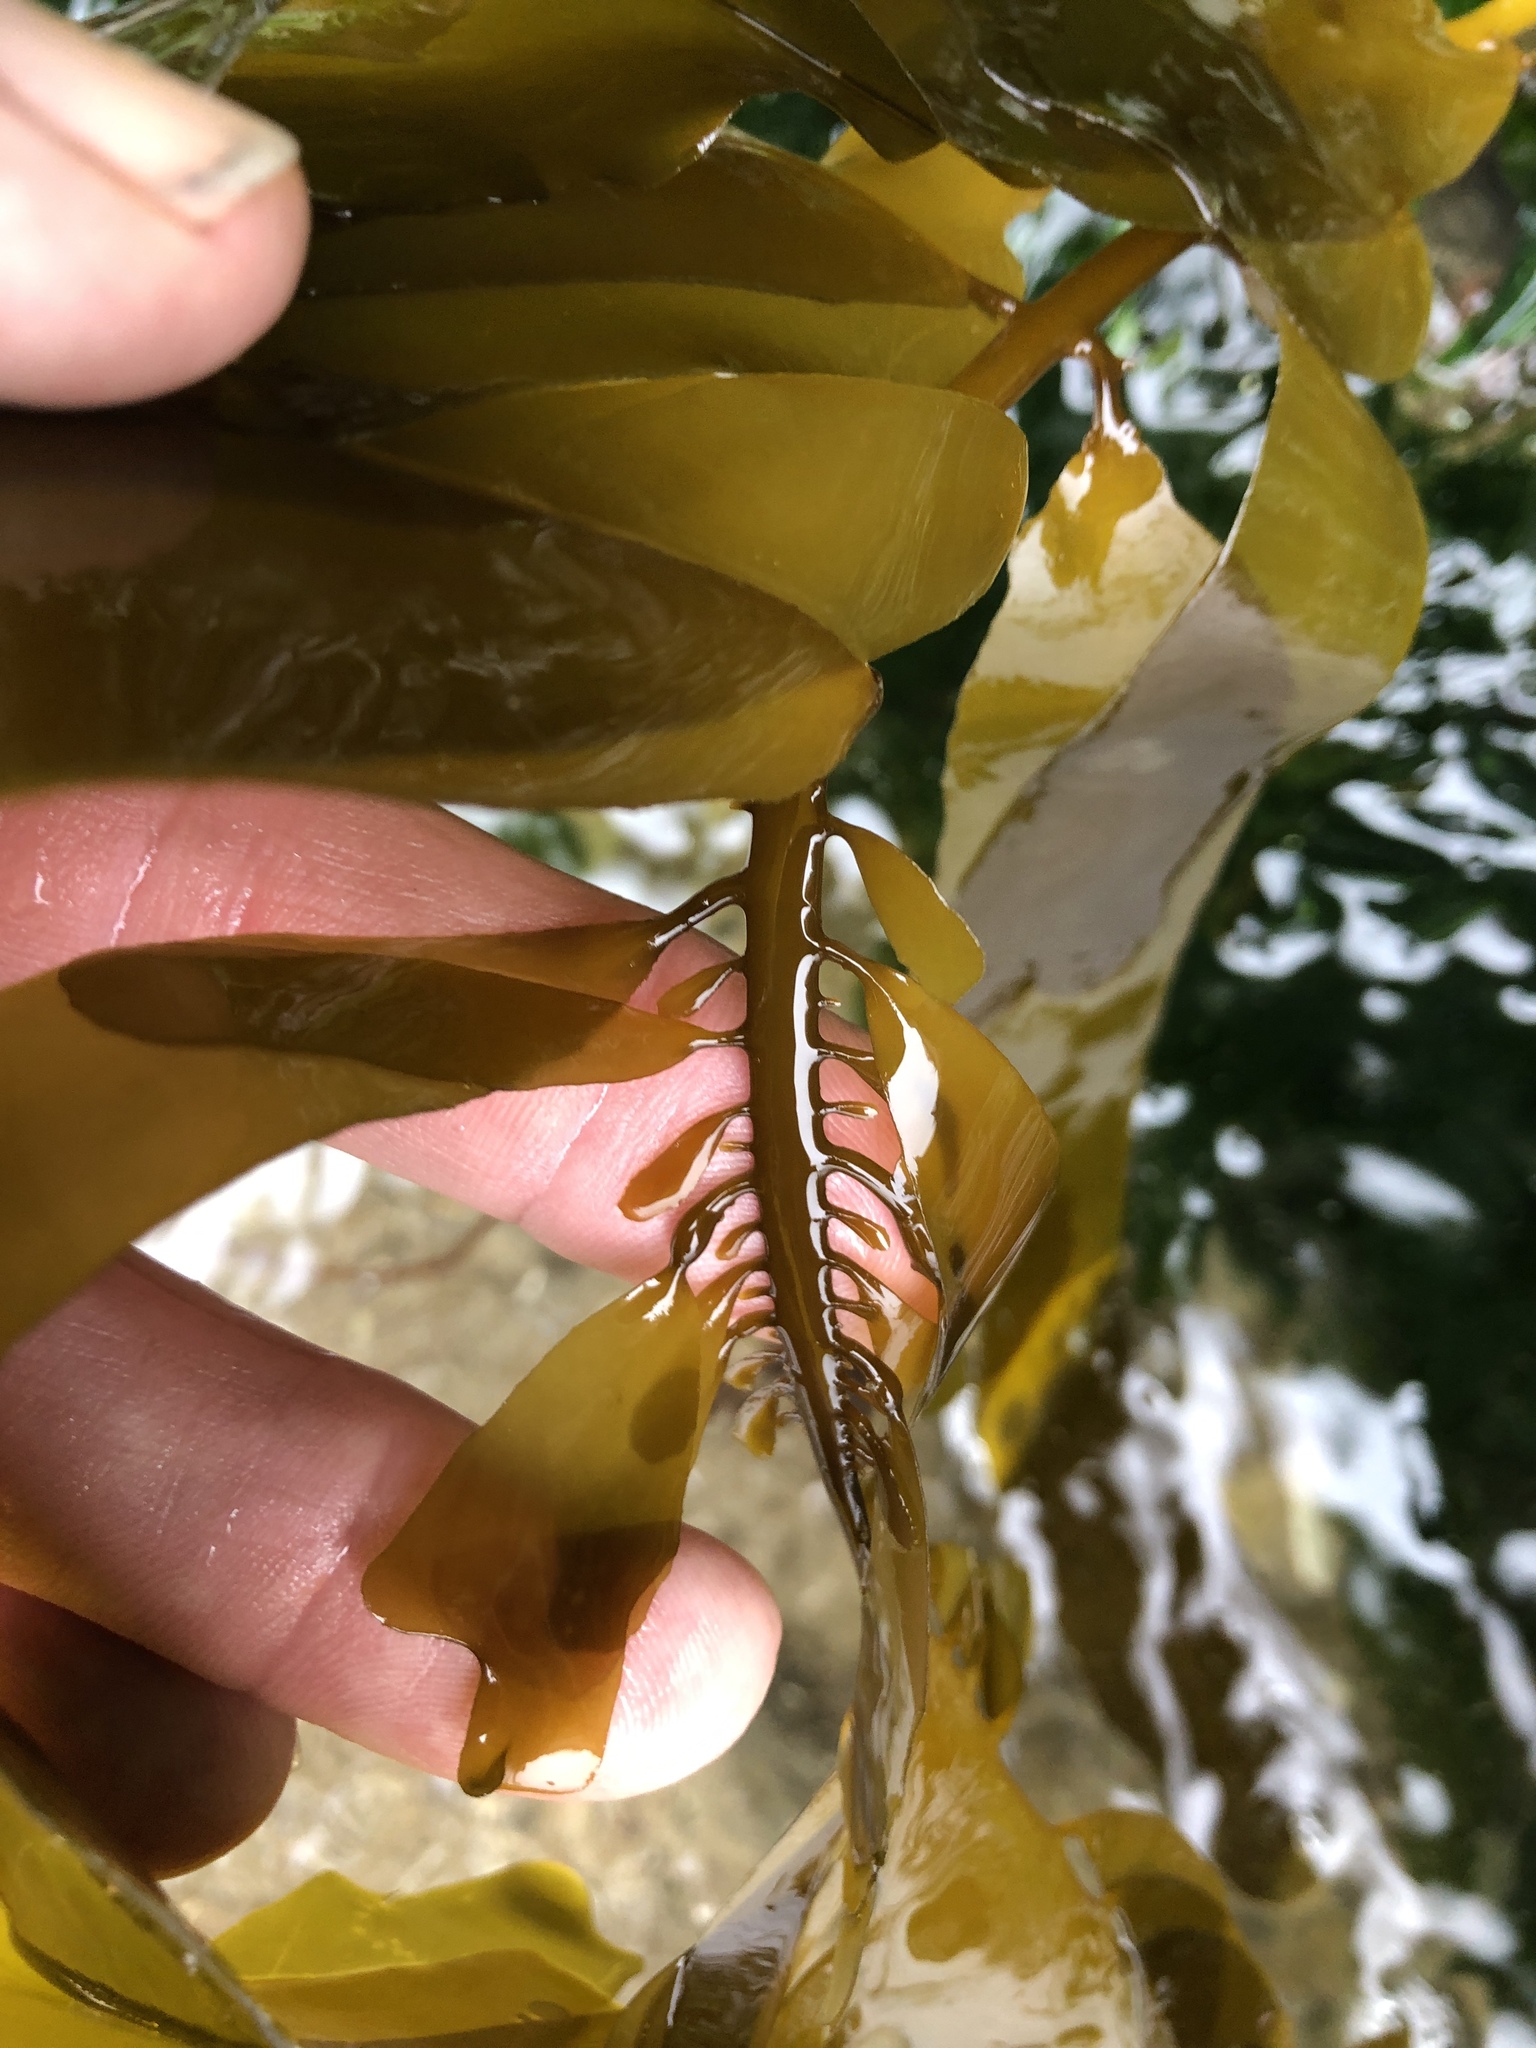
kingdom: Chromista
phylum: Ochrophyta
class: Phaeophyceae
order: Laminariales
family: Lessoniaceae
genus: Egregia
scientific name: Egregia menziesii
